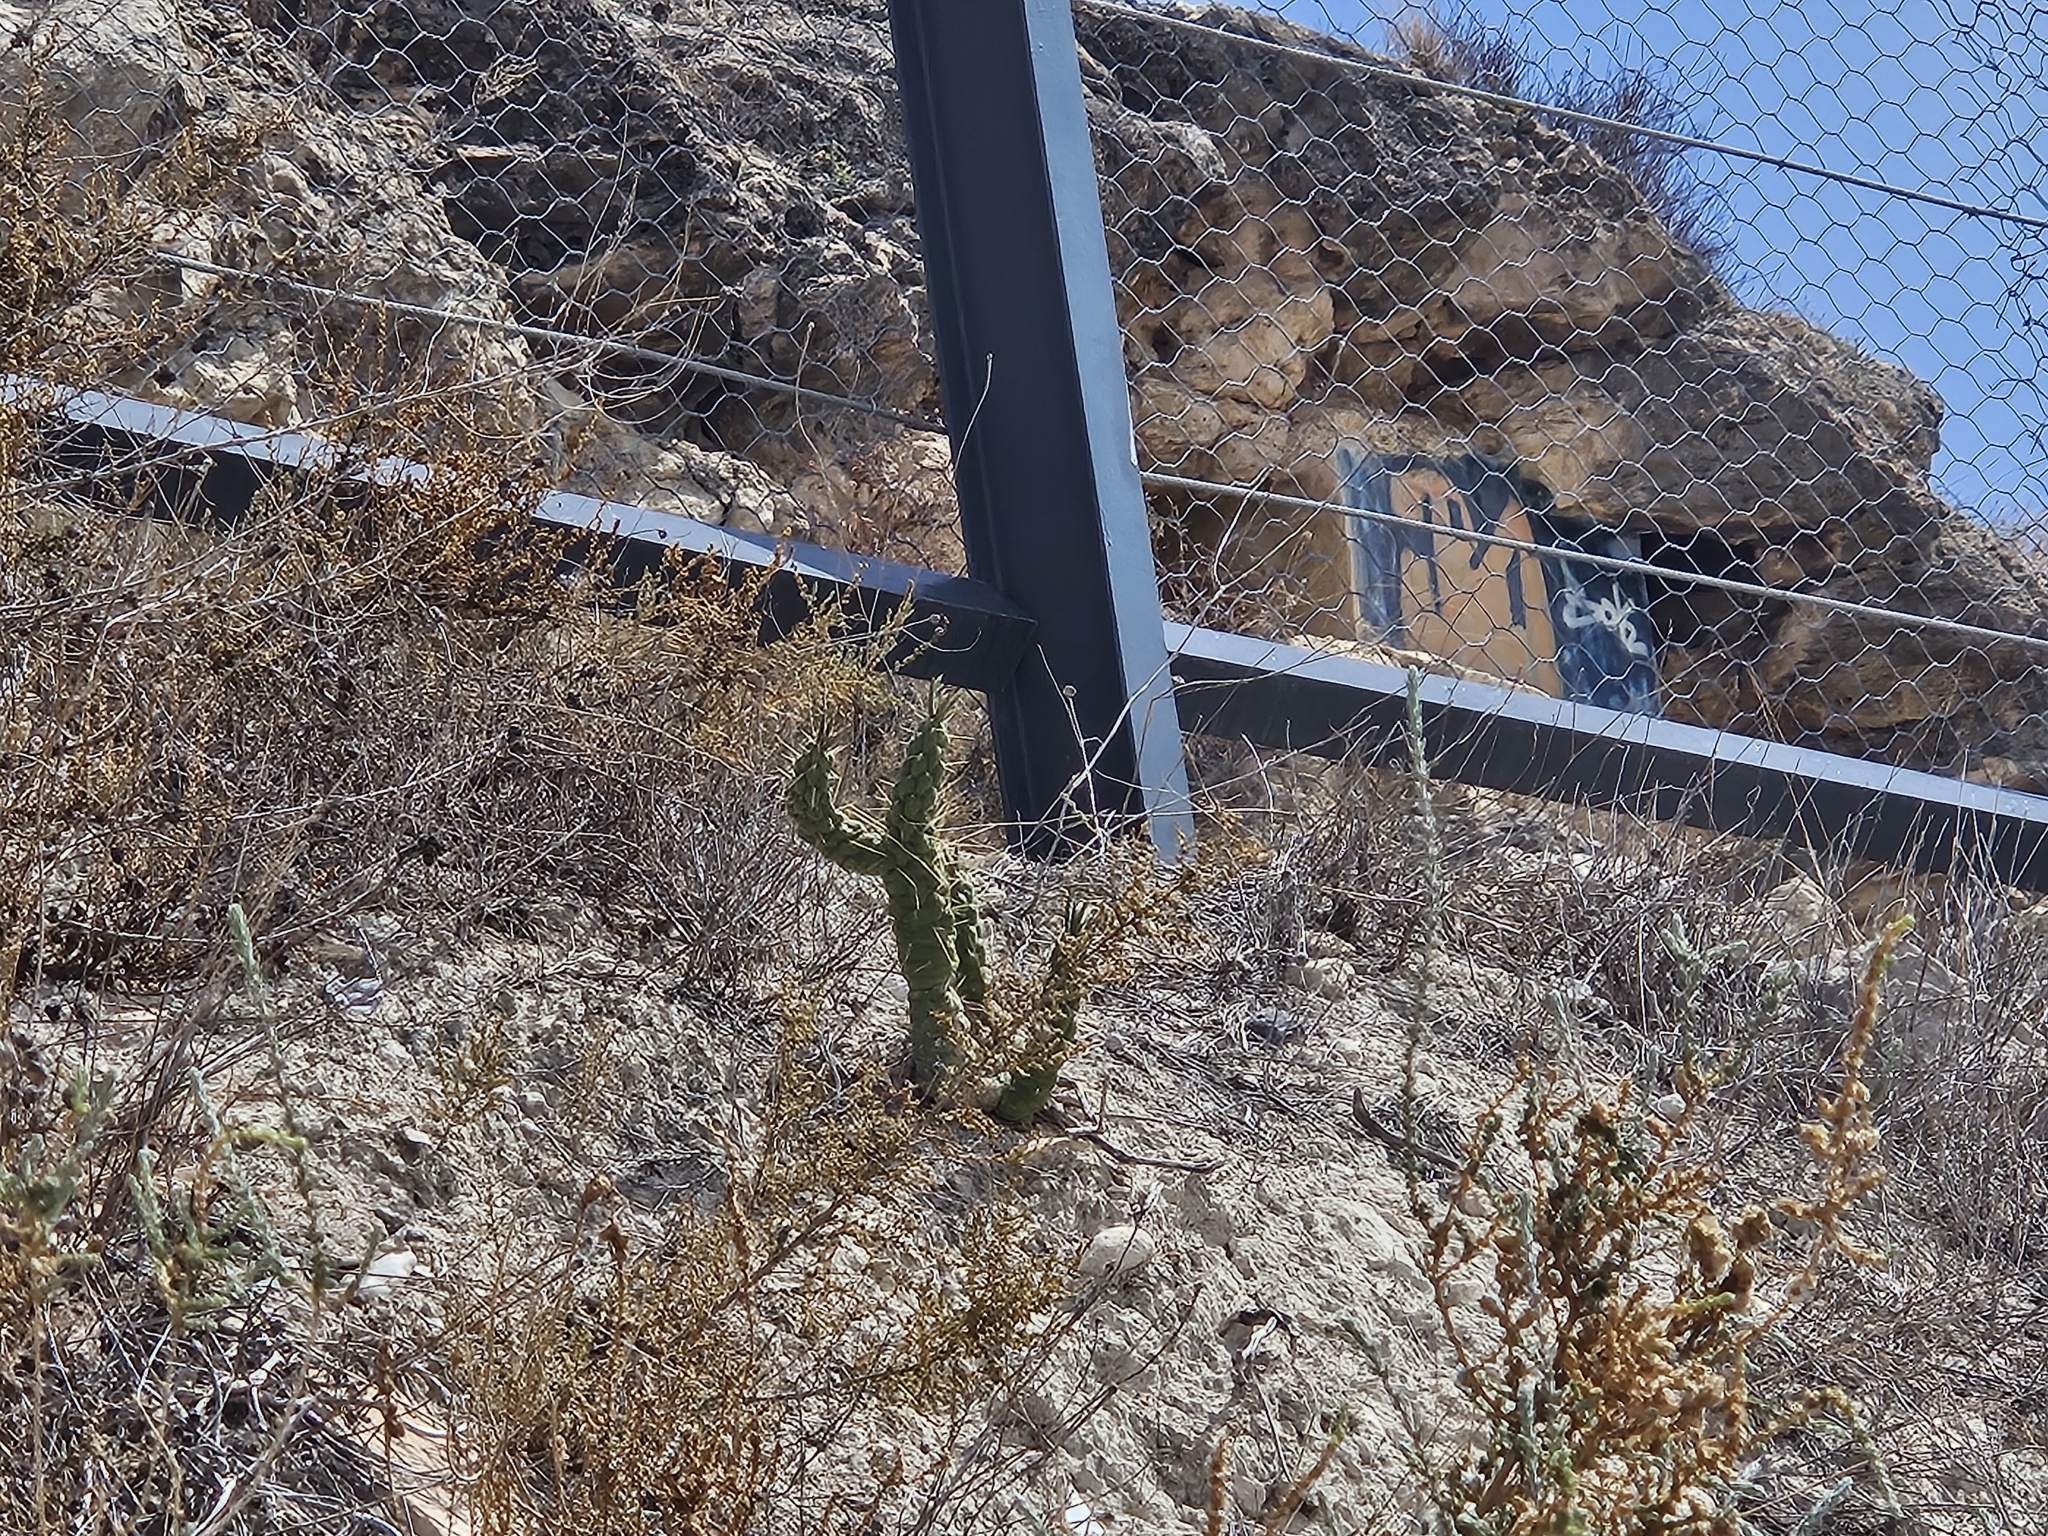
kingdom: Plantae
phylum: Tracheophyta
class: Magnoliopsida
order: Caryophyllales
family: Cactaceae
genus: Austrocylindropuntia
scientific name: Austrocylindropuntia subulata
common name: Eve's needle cactus
